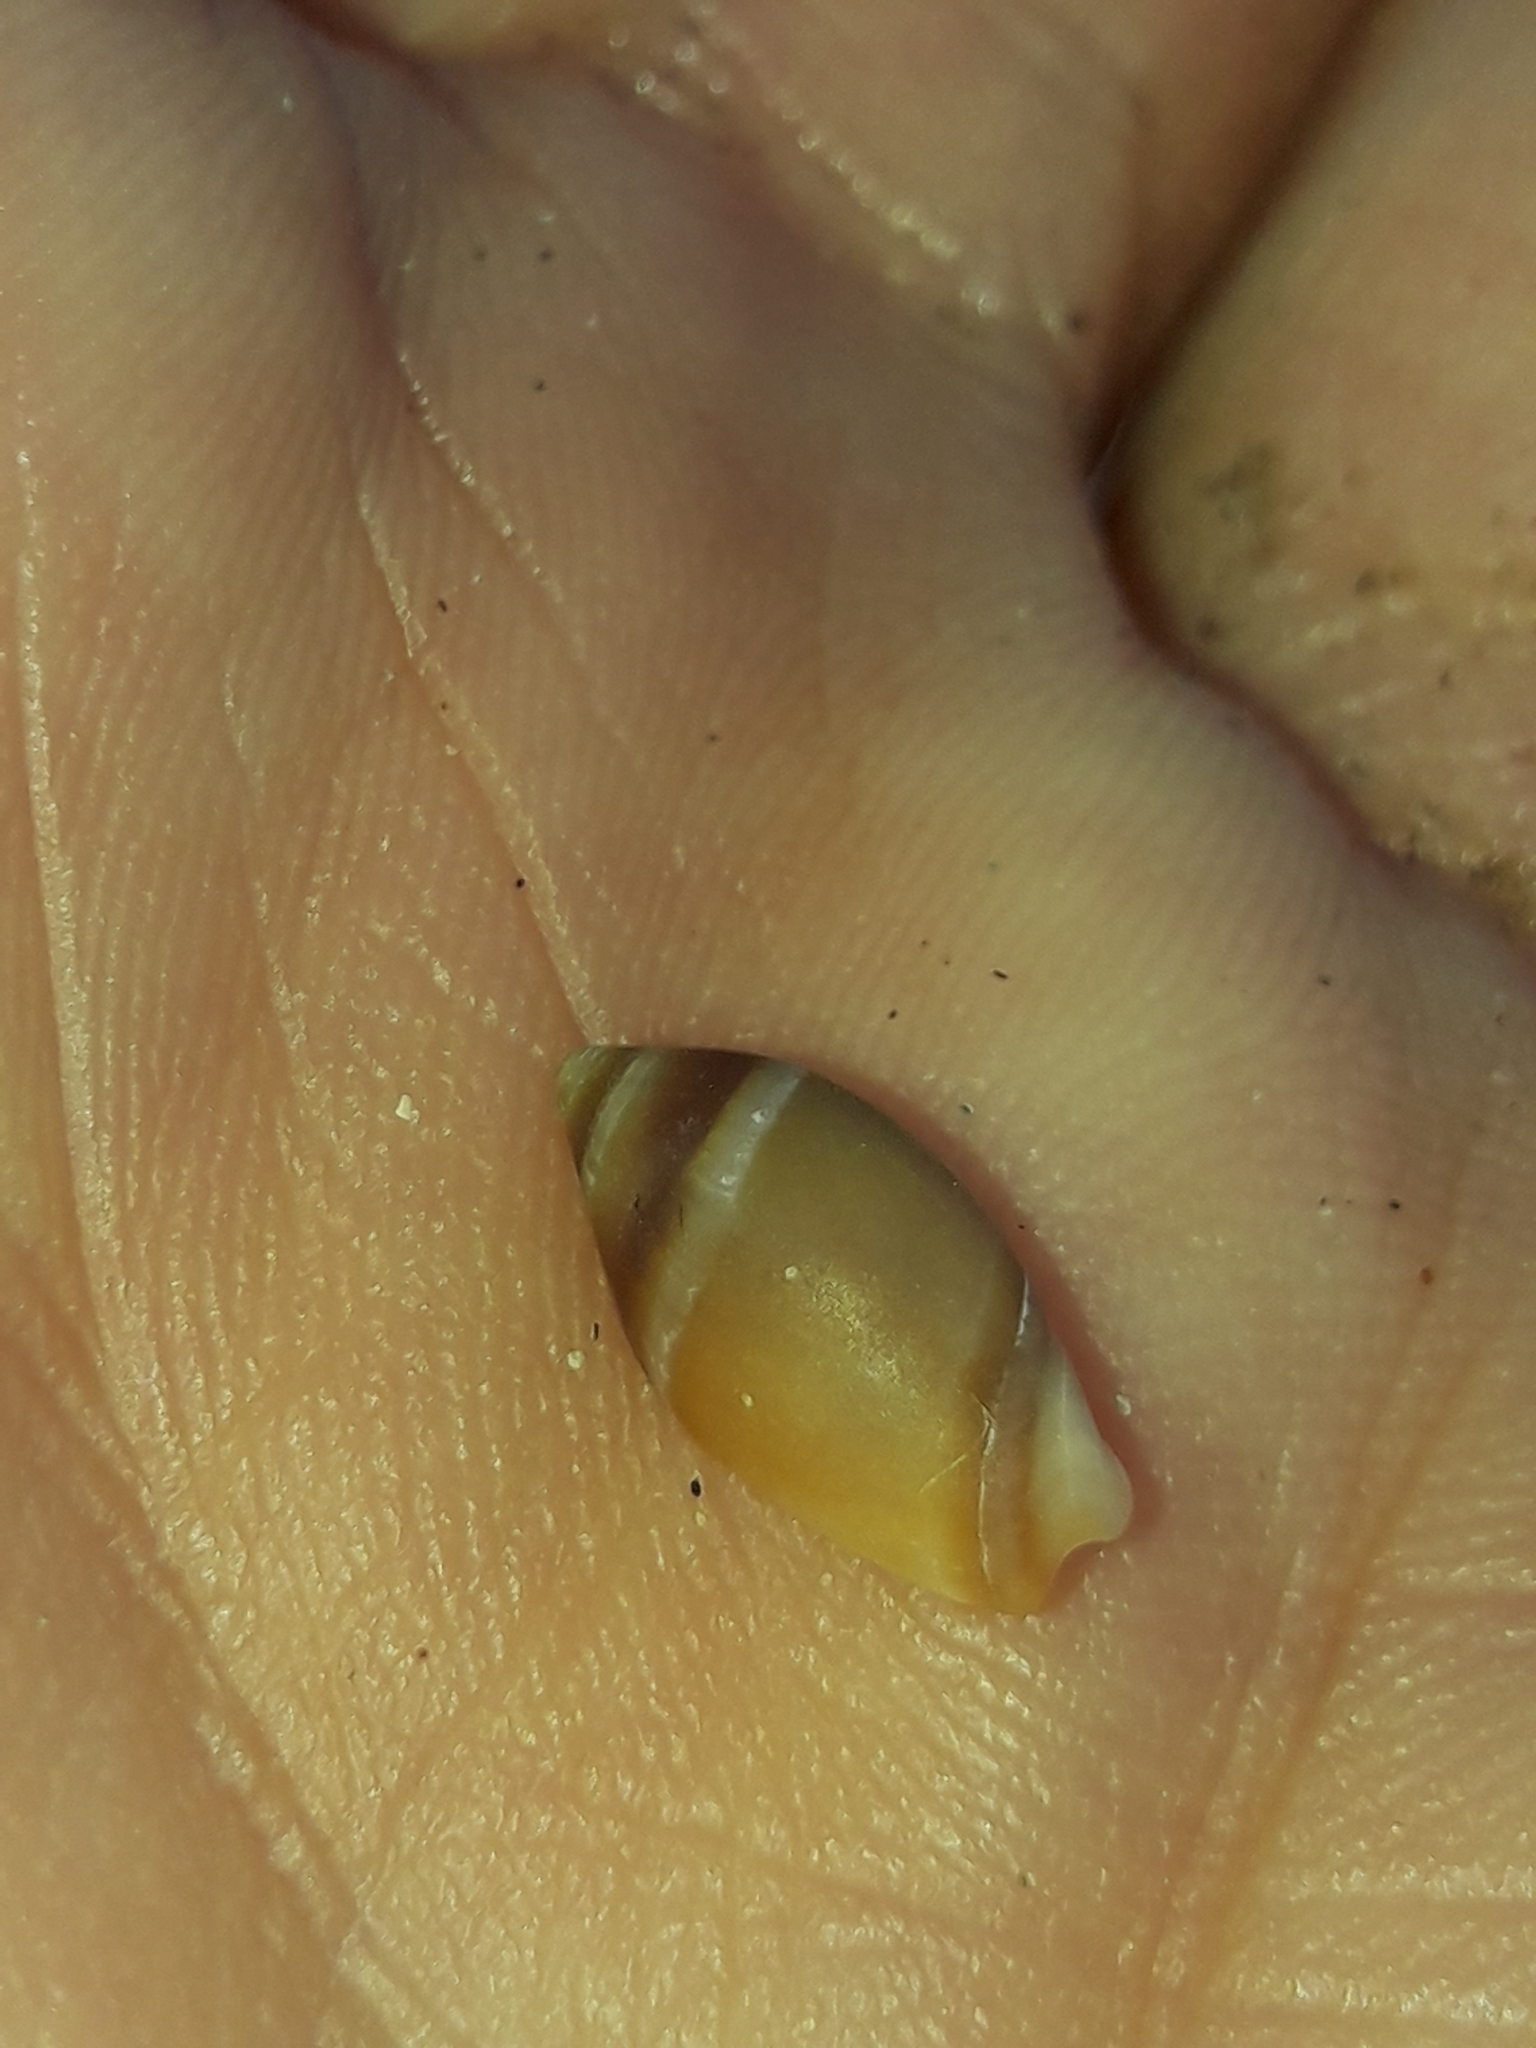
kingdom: Animalia
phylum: Mollusca
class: Gastropoda
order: Neogastropoda
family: Ancillariidae
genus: Amalda
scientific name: Amalda australis
